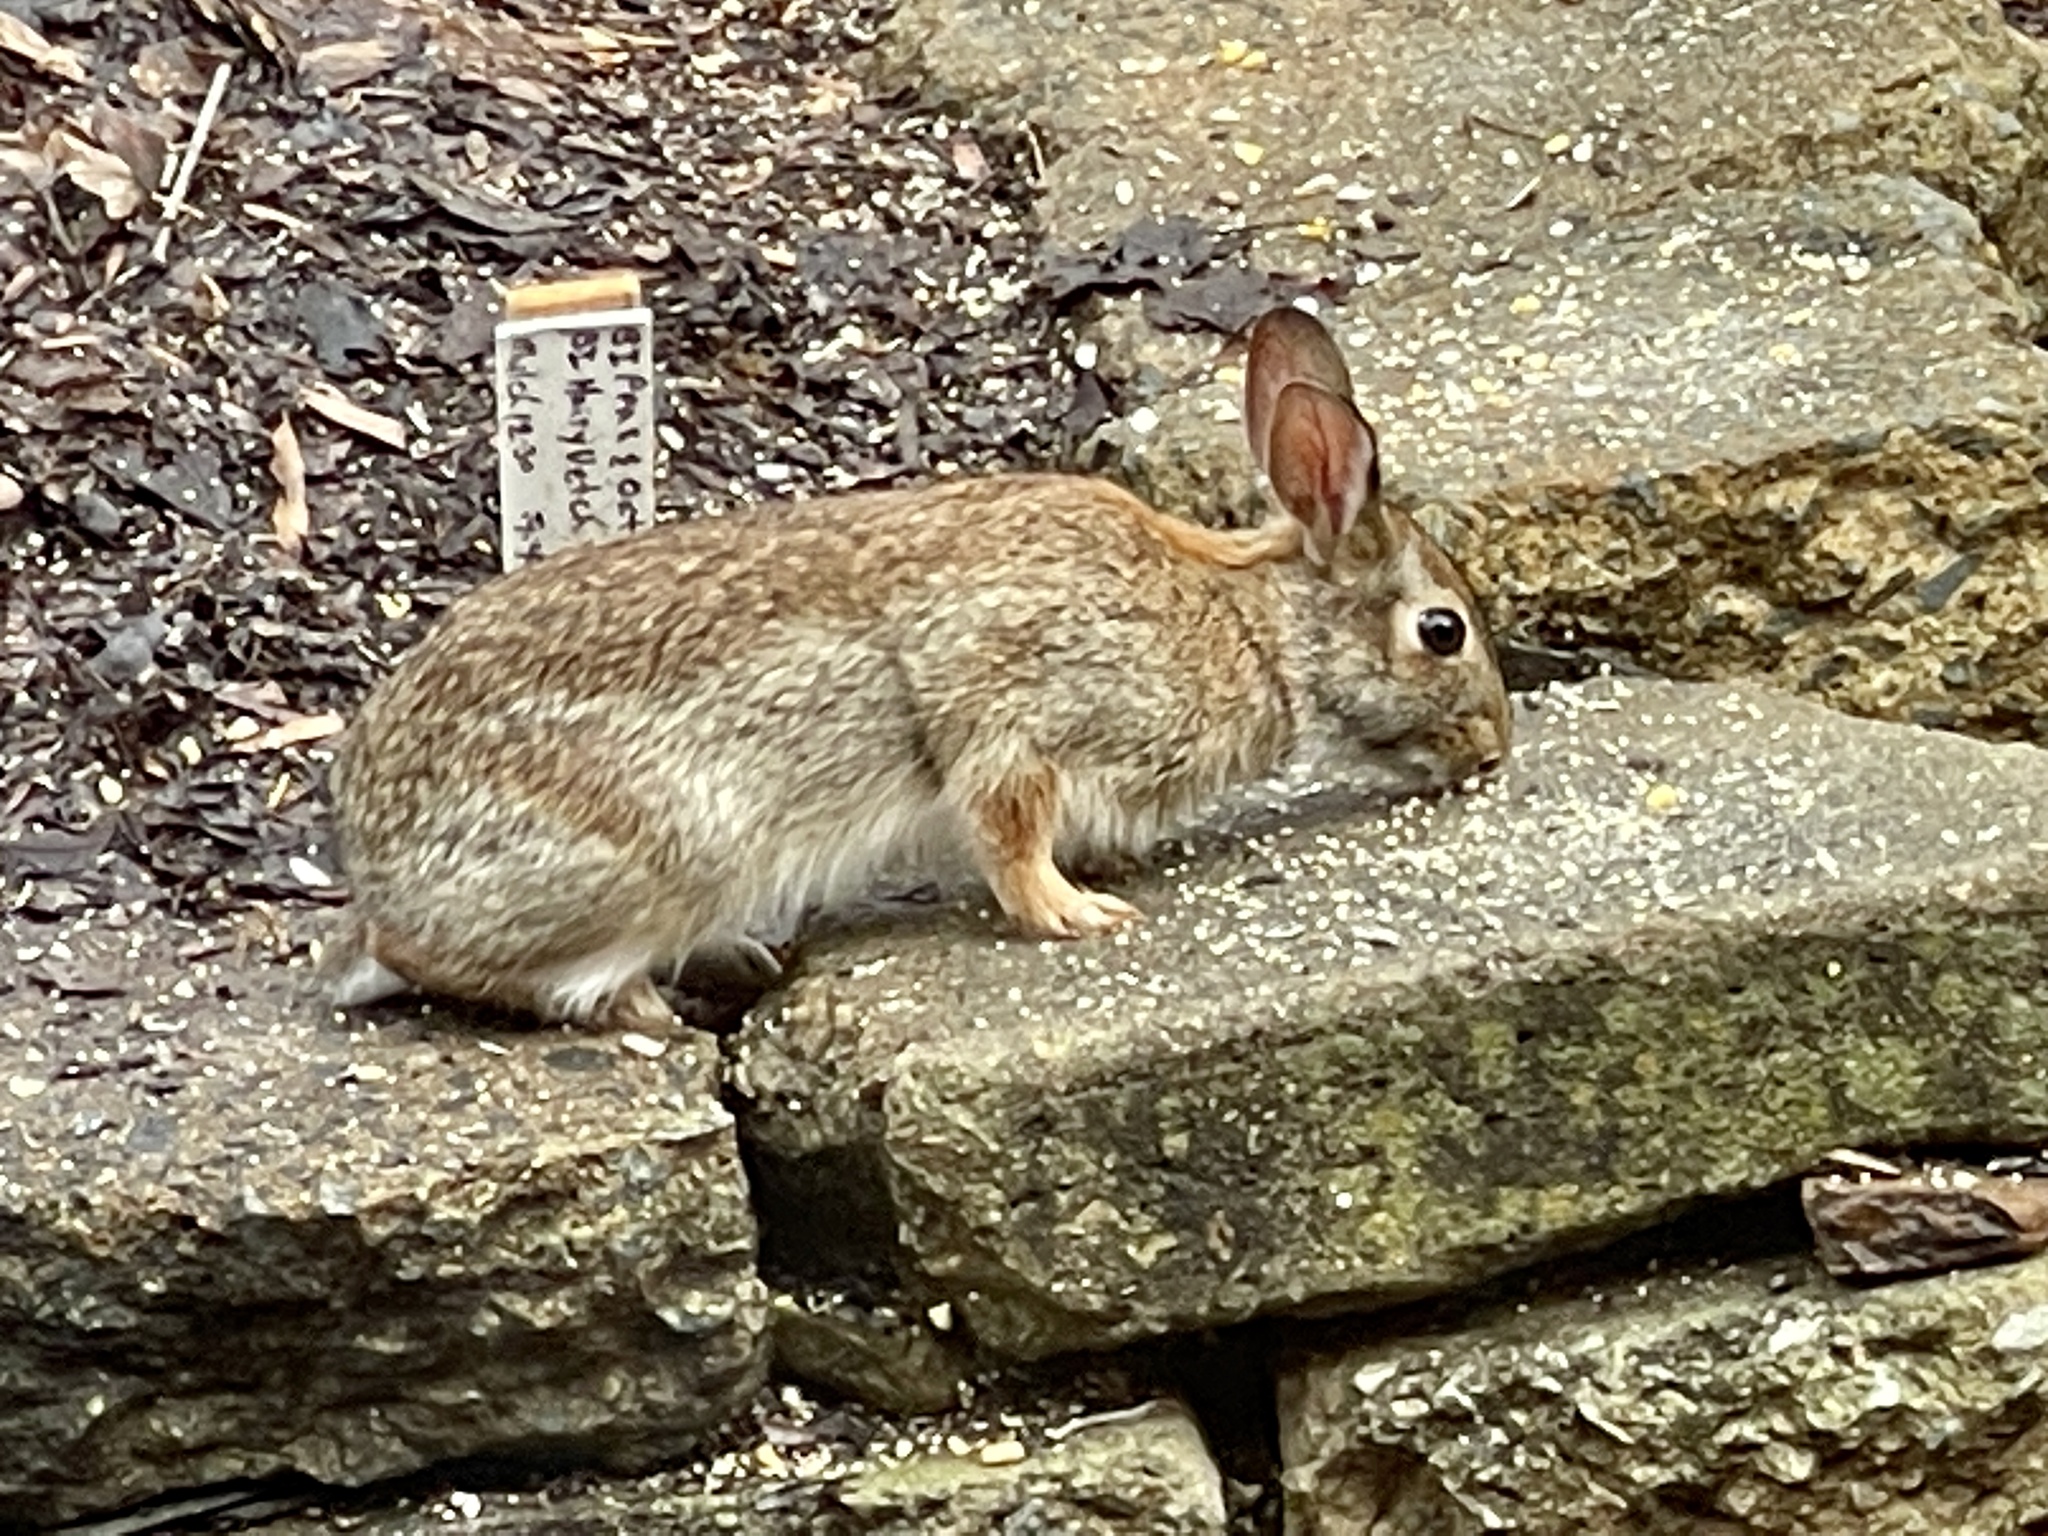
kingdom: Animalia
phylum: Chordata
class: Mammalia
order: Lagomorpha
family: Leporidae
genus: Sylvilagus
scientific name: Sylvilagus floridanus
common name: Eastern cottontail
